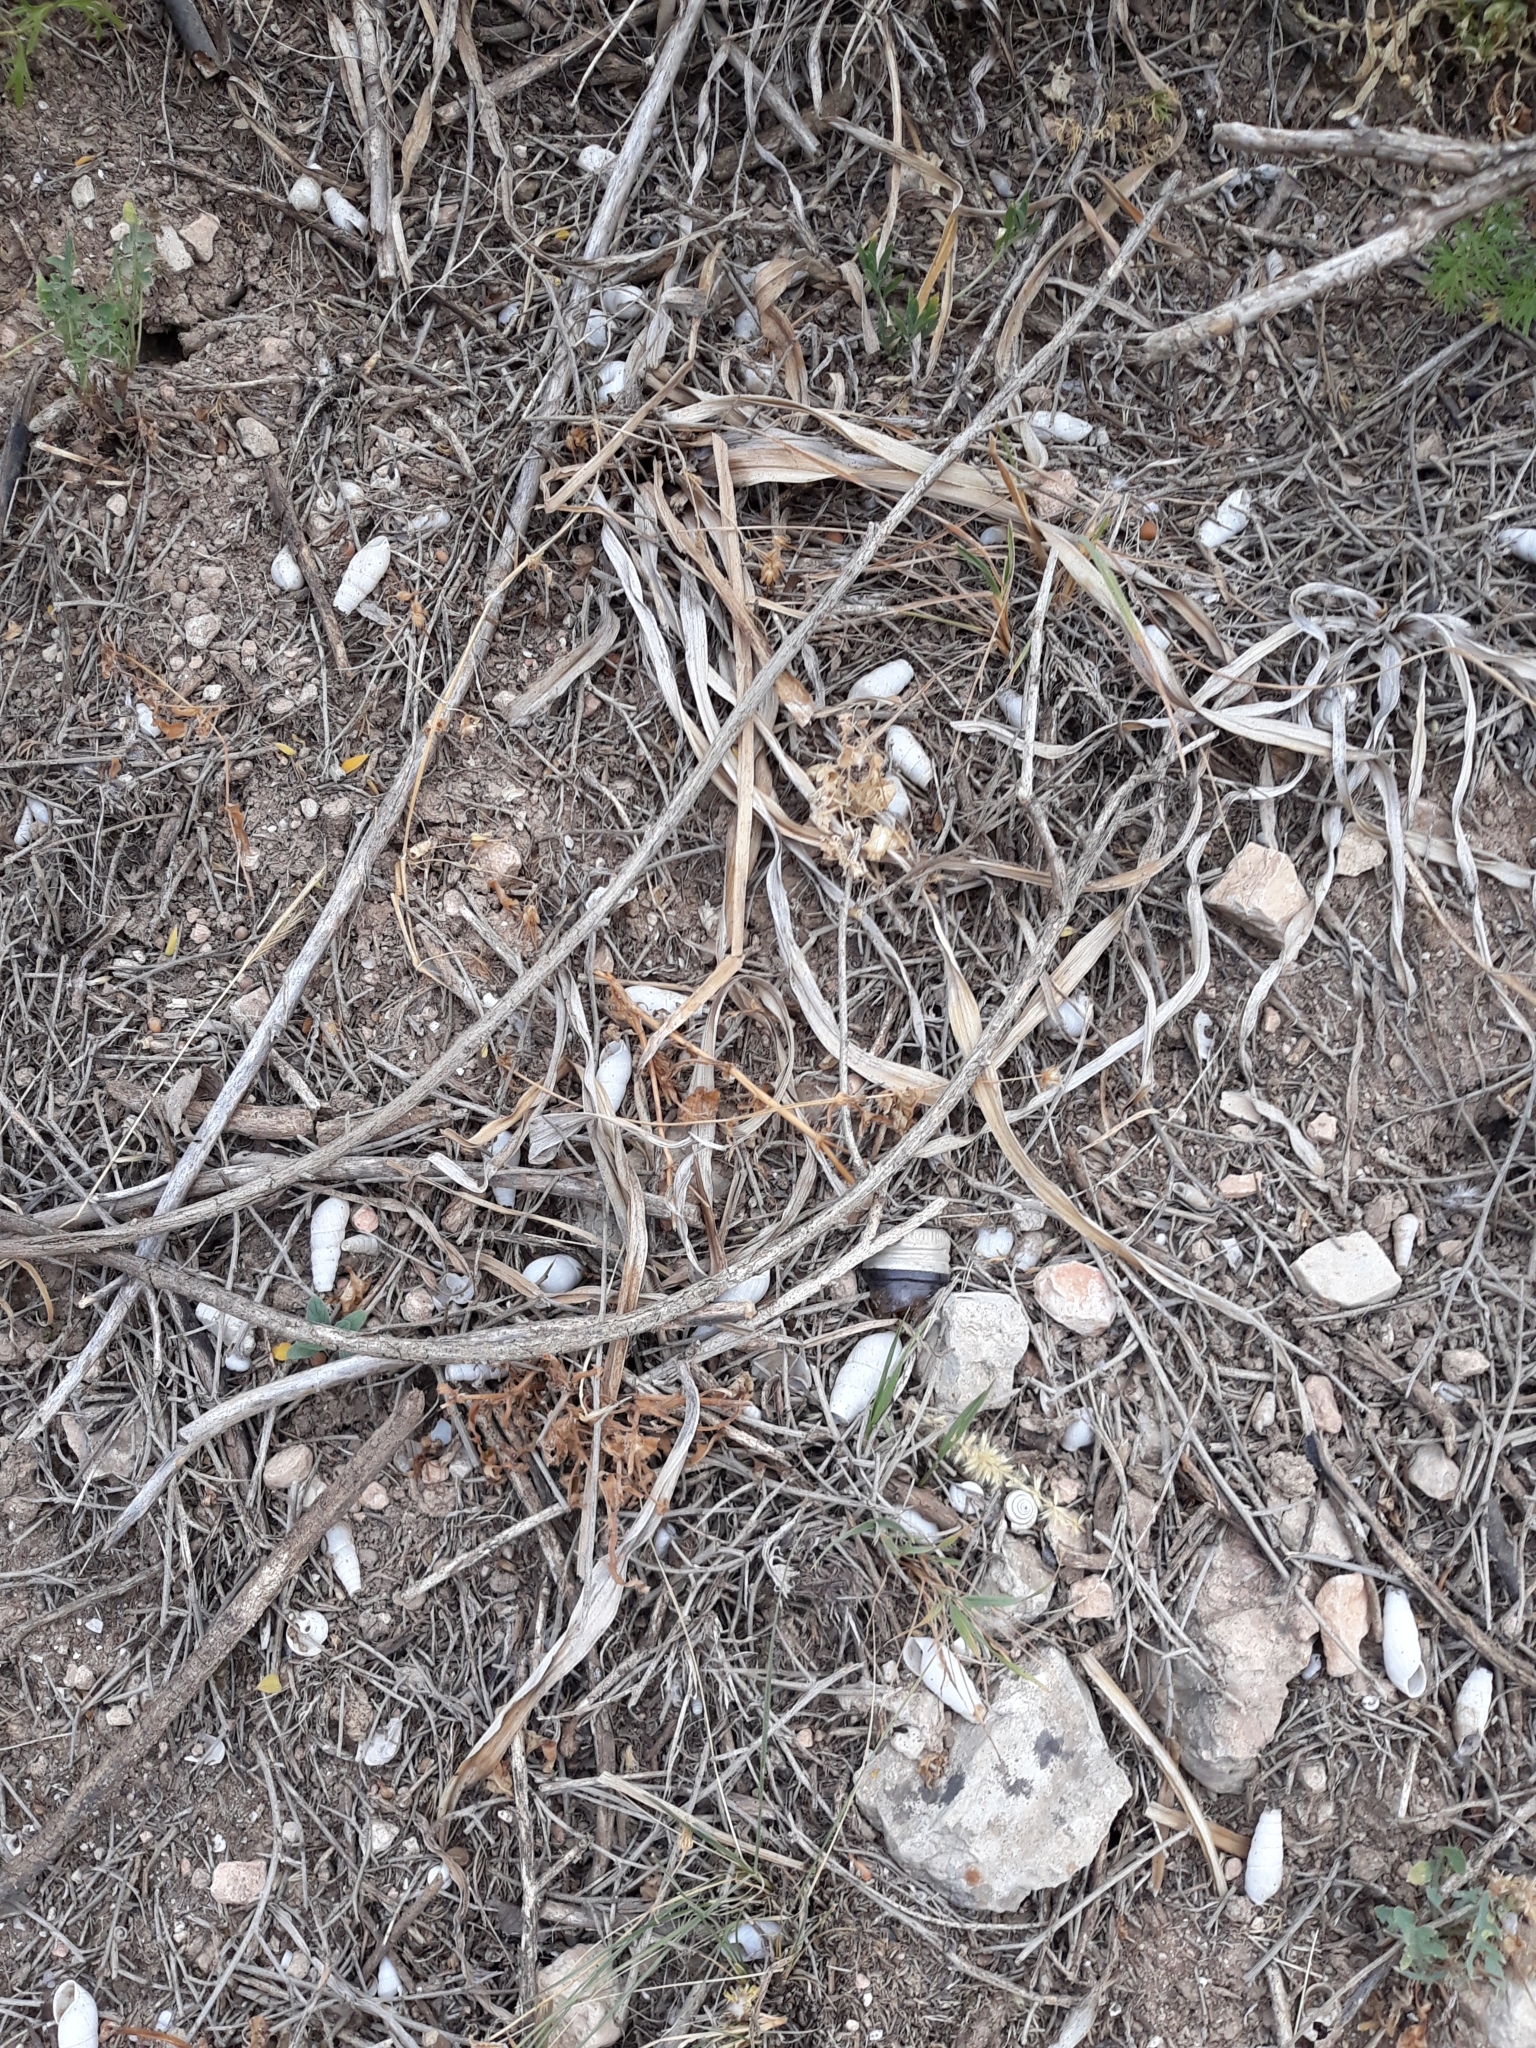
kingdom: Animalia
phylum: Mollusca
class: Gastropoda
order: Stylommatophora
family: Achatinidae
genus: Rumina
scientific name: Rumina decollata
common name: Decollate snail
